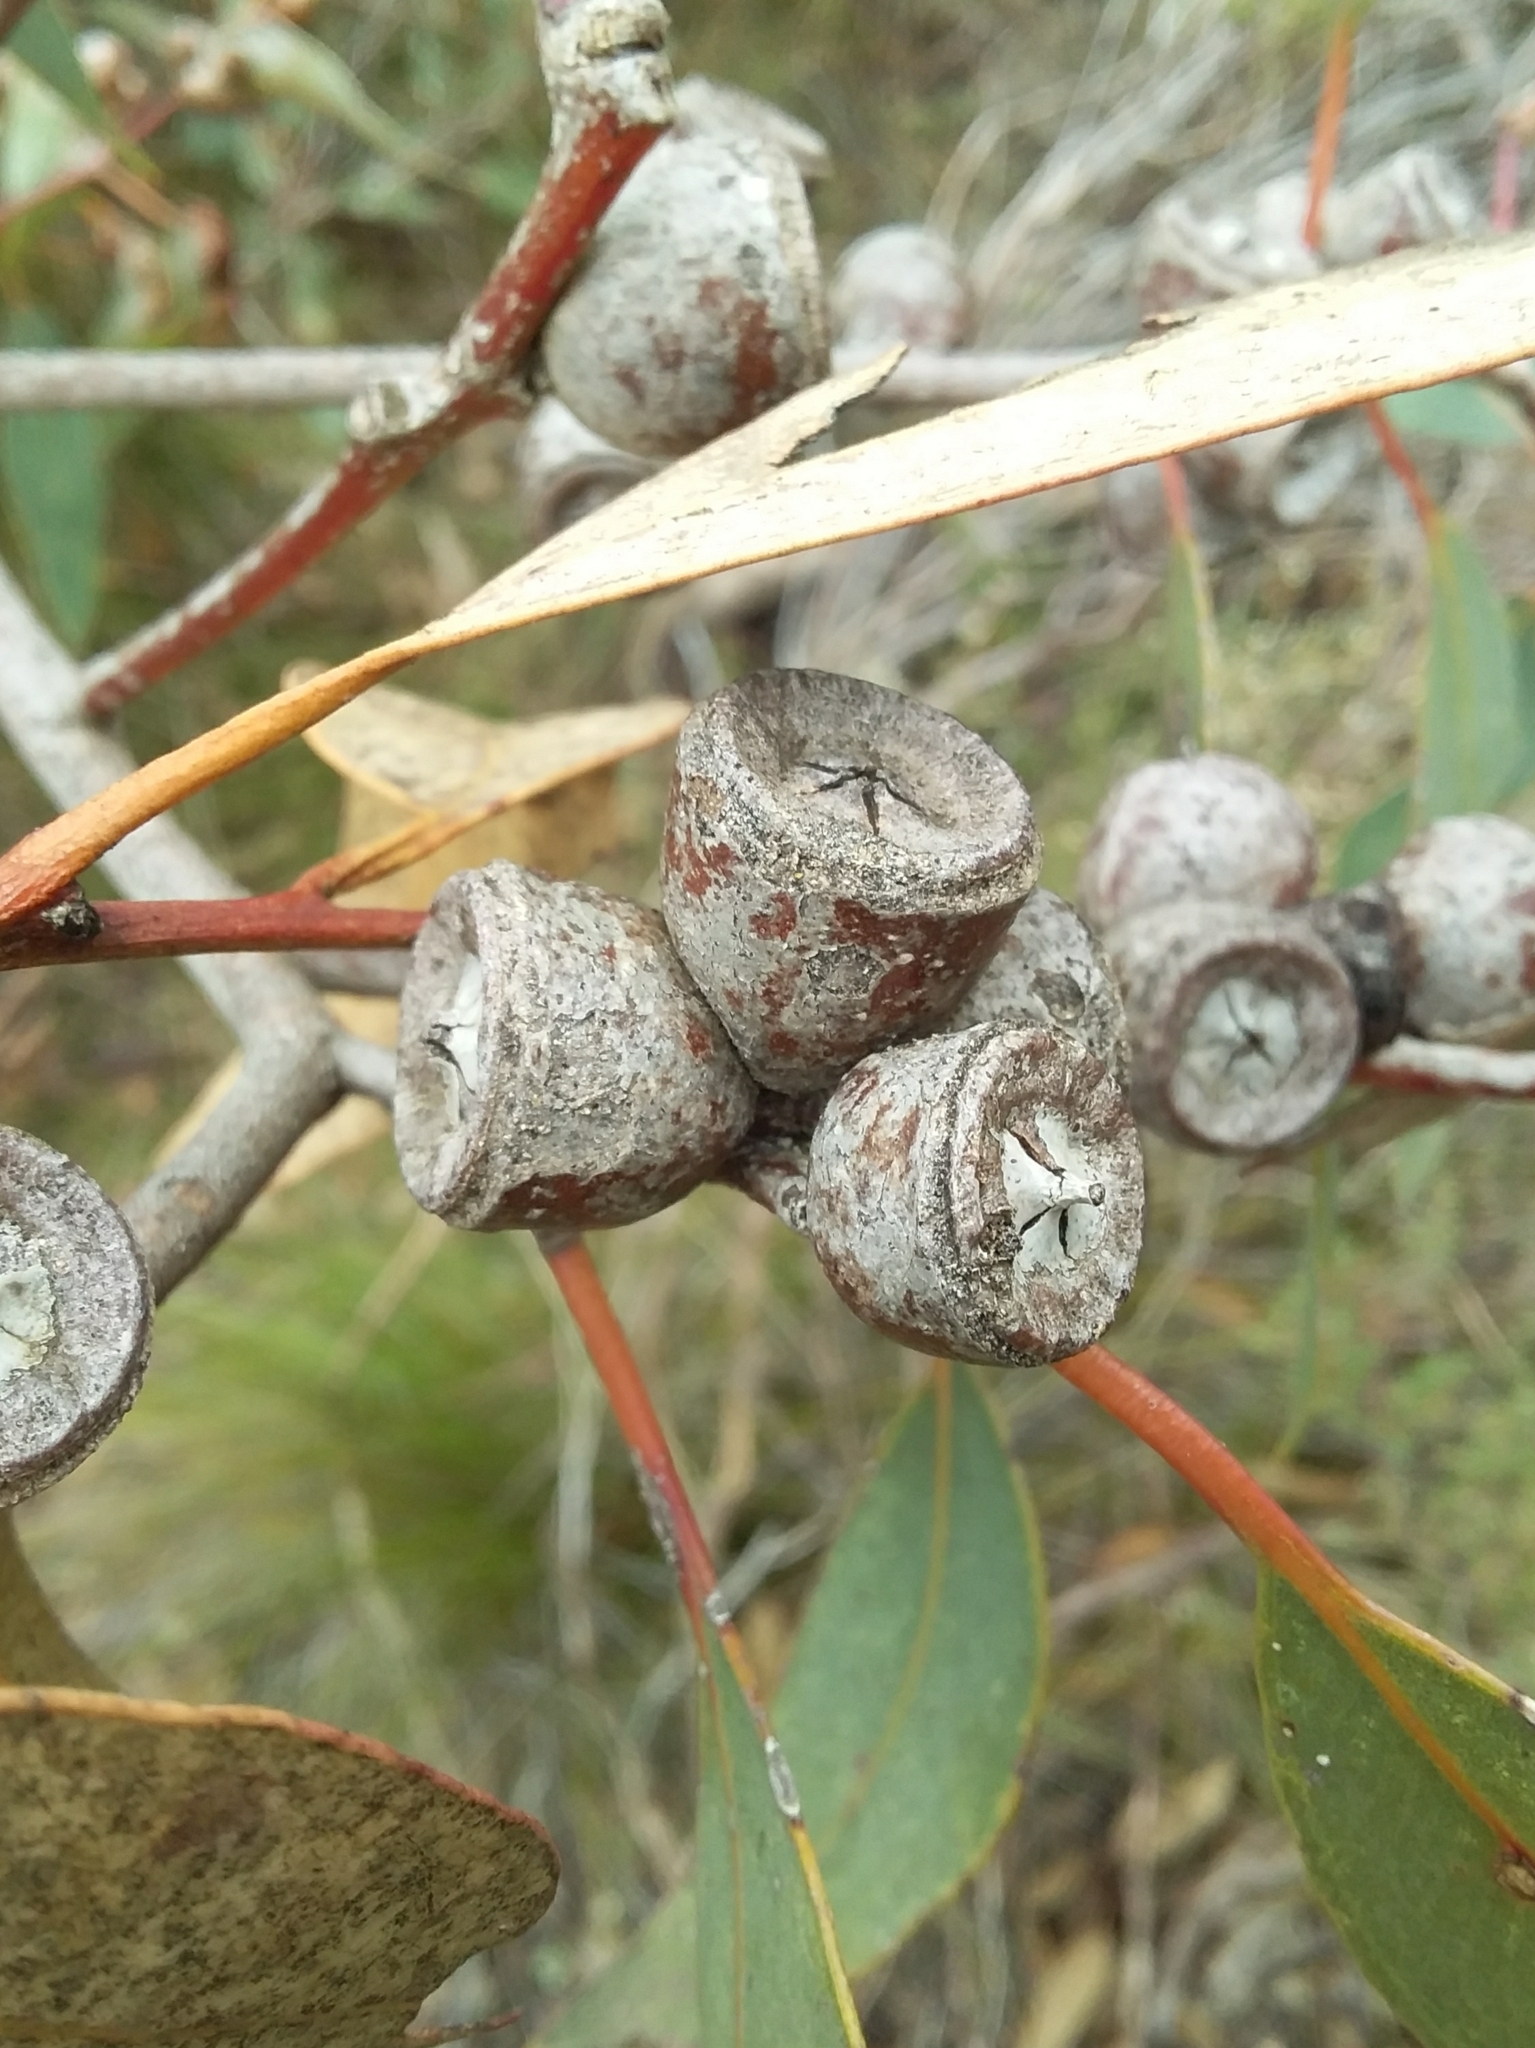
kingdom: Plantae
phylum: Tracheophyta
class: Magnoliopsida
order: Myrtales
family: Myrtaceae
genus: Eucalyptus
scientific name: Eucalyptus cosmophylla
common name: Bog-gum
